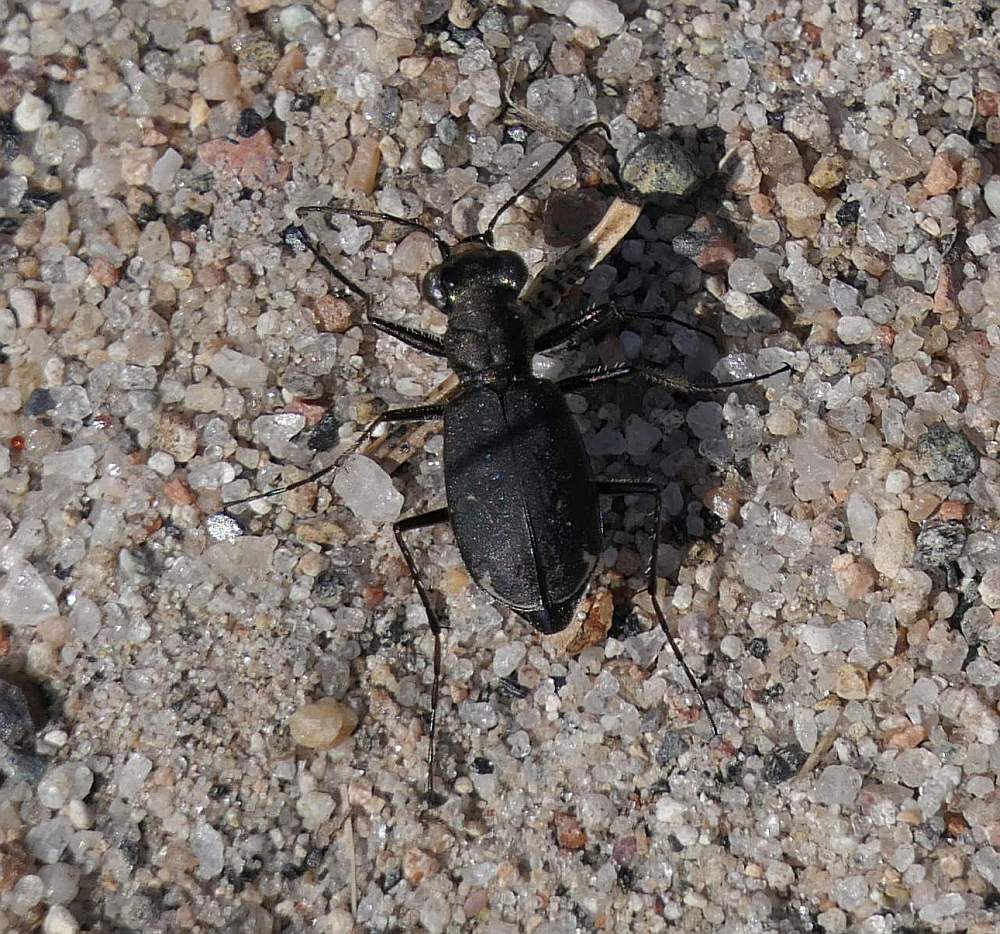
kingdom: Animalia
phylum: Arthropoda
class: Insecta
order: Coleoptera
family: Carabidae
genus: Cicindela
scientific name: Cicindela punctulata
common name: Punctured tiger beetle
